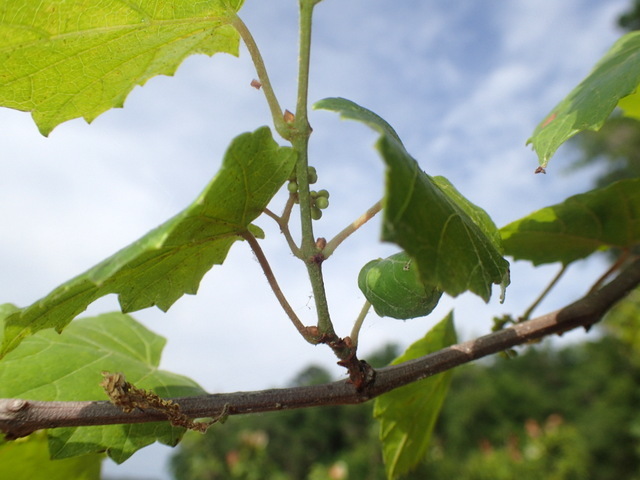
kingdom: Plantae
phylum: Tracheophyta
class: Magnoliopsida
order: Vitales
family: Vitaceae
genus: Vitis
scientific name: Vitis rotundifolia
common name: Muscadine grape
